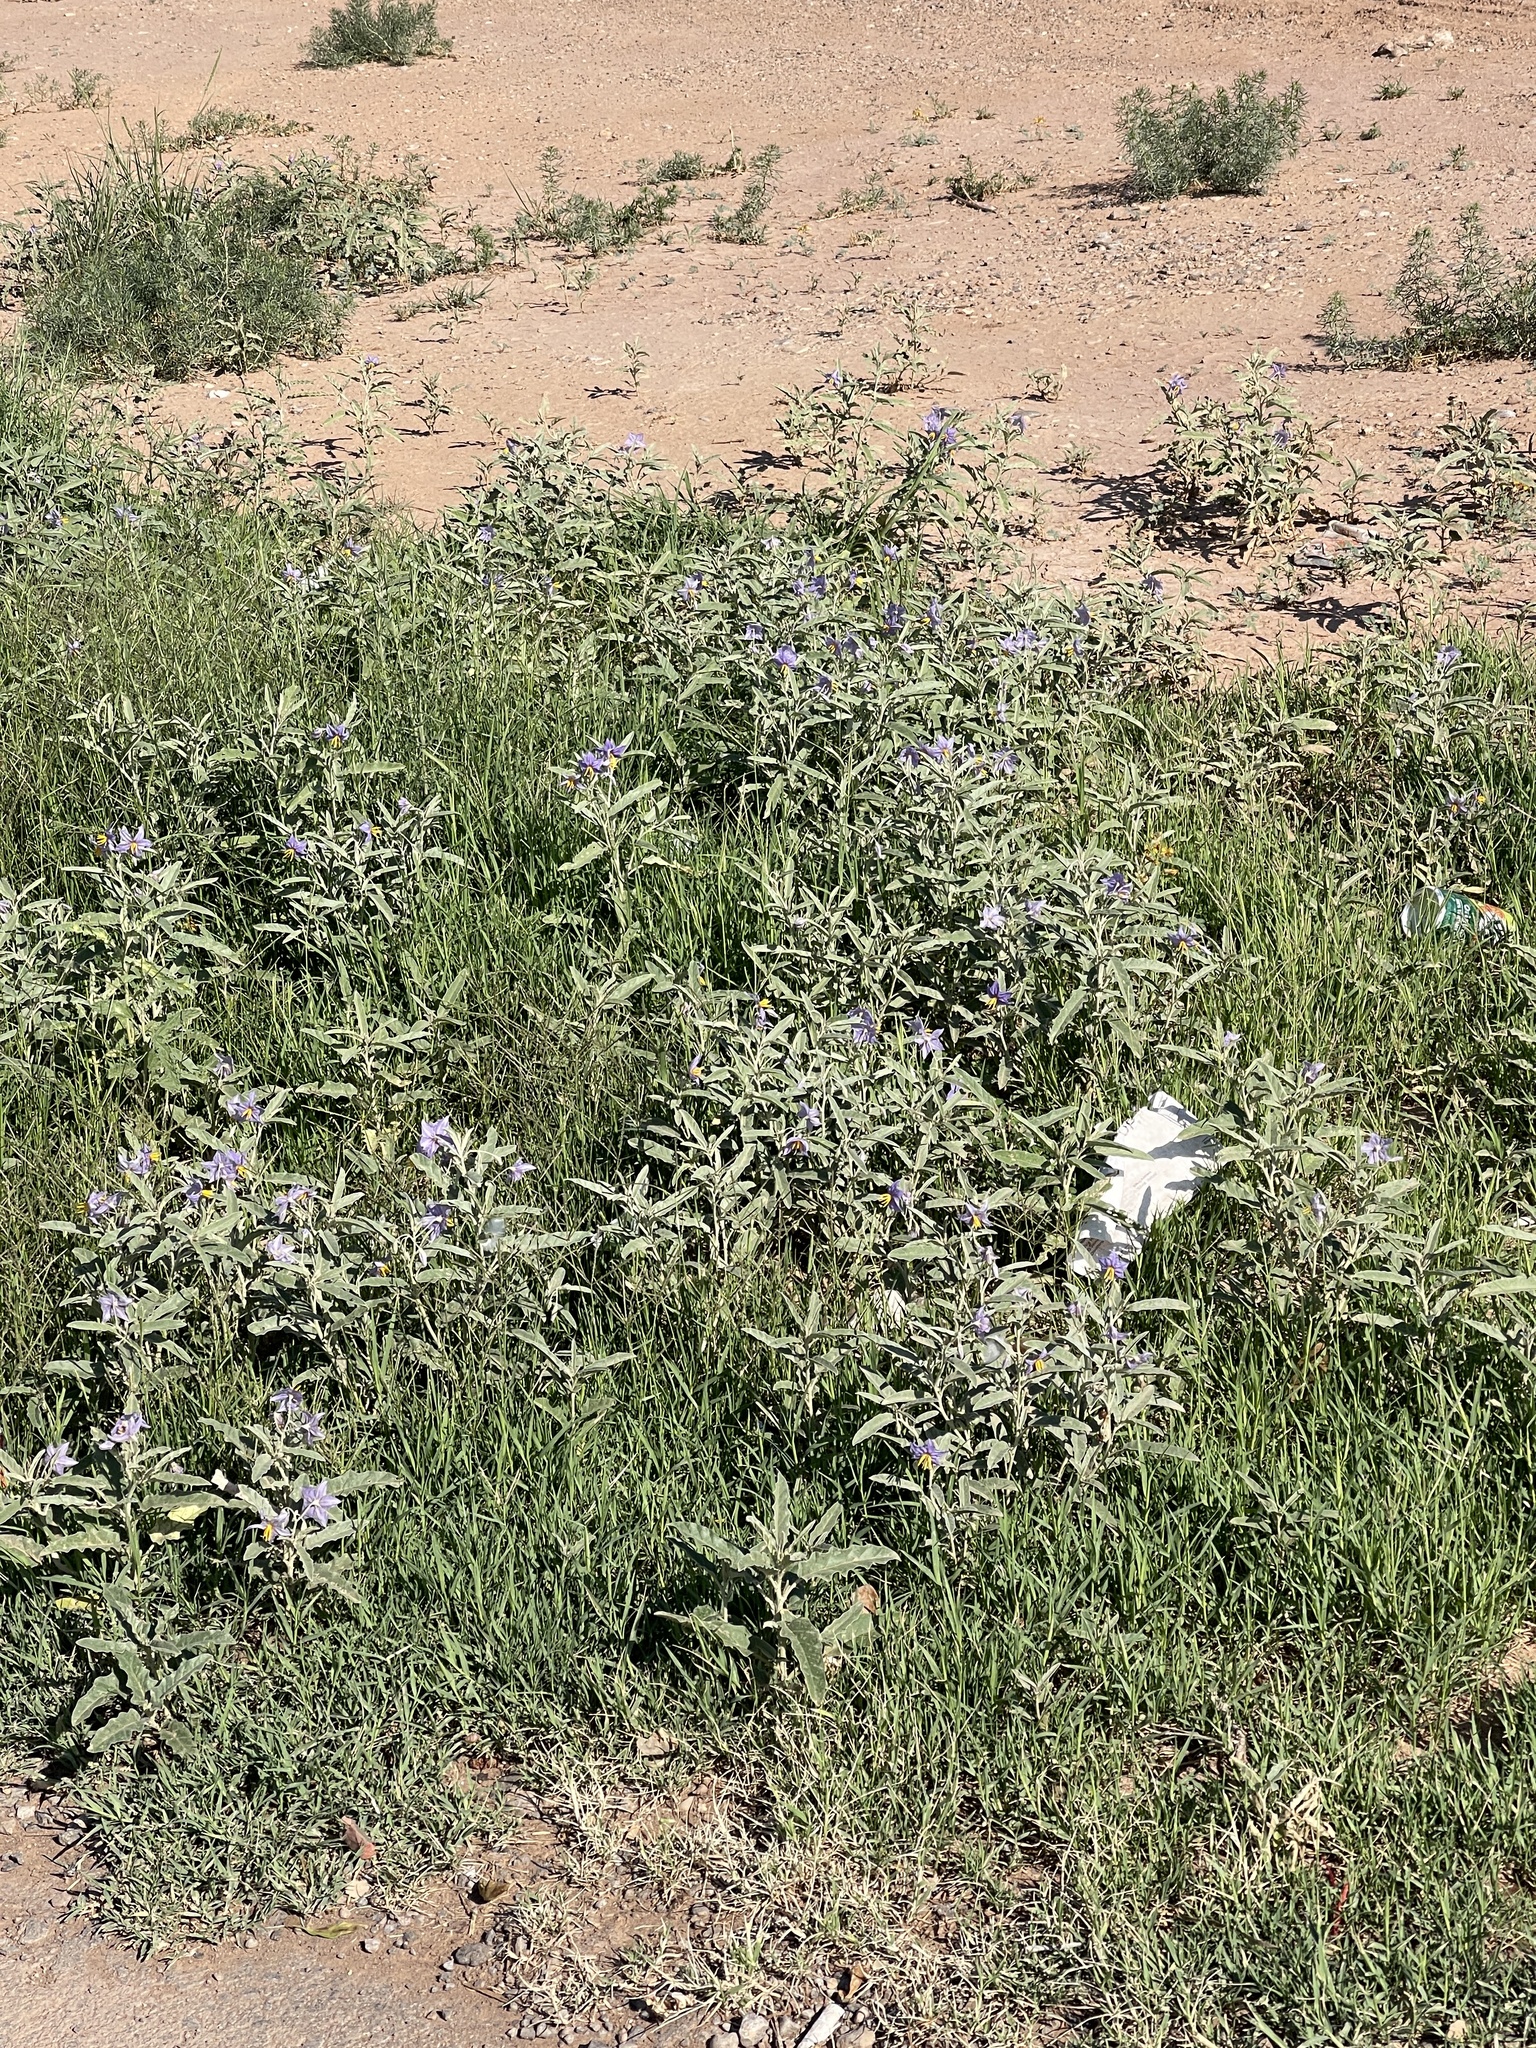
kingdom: Plantae
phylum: Tracheophyta
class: Magnoliopsida
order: Solanales
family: Solanaceae
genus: Solanum
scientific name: Solanum elaeagnifolium
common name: Silverleaf nightshade
